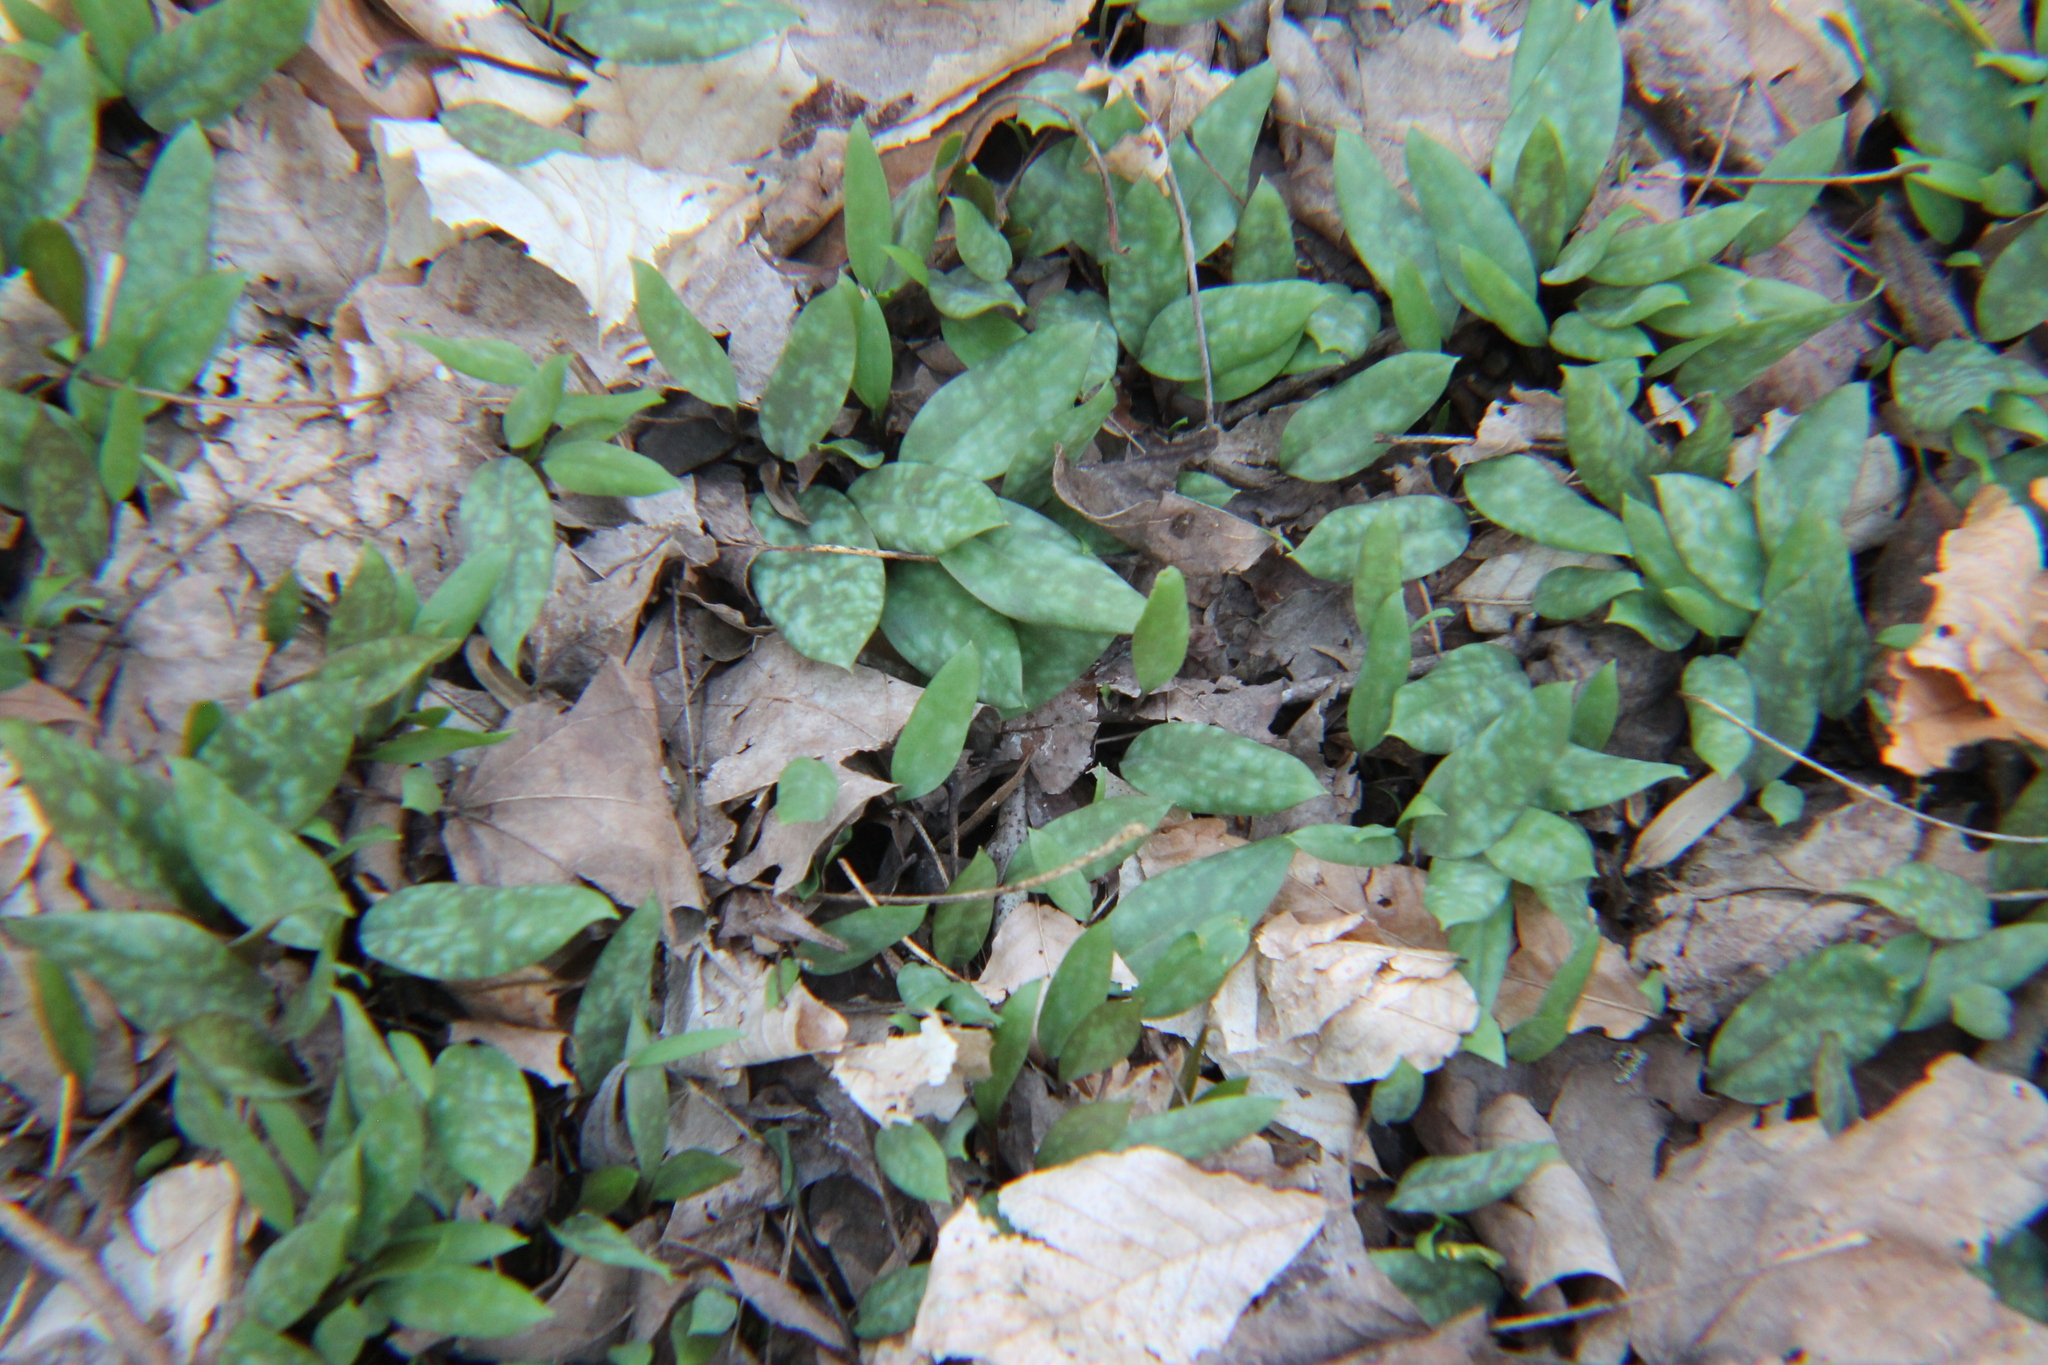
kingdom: Plantae
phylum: Tracheophyta
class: Liliopsida
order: Liliales
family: Liliaceae
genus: Erythronium
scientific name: Erythronium americanum
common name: Yellow adder's-tongue
